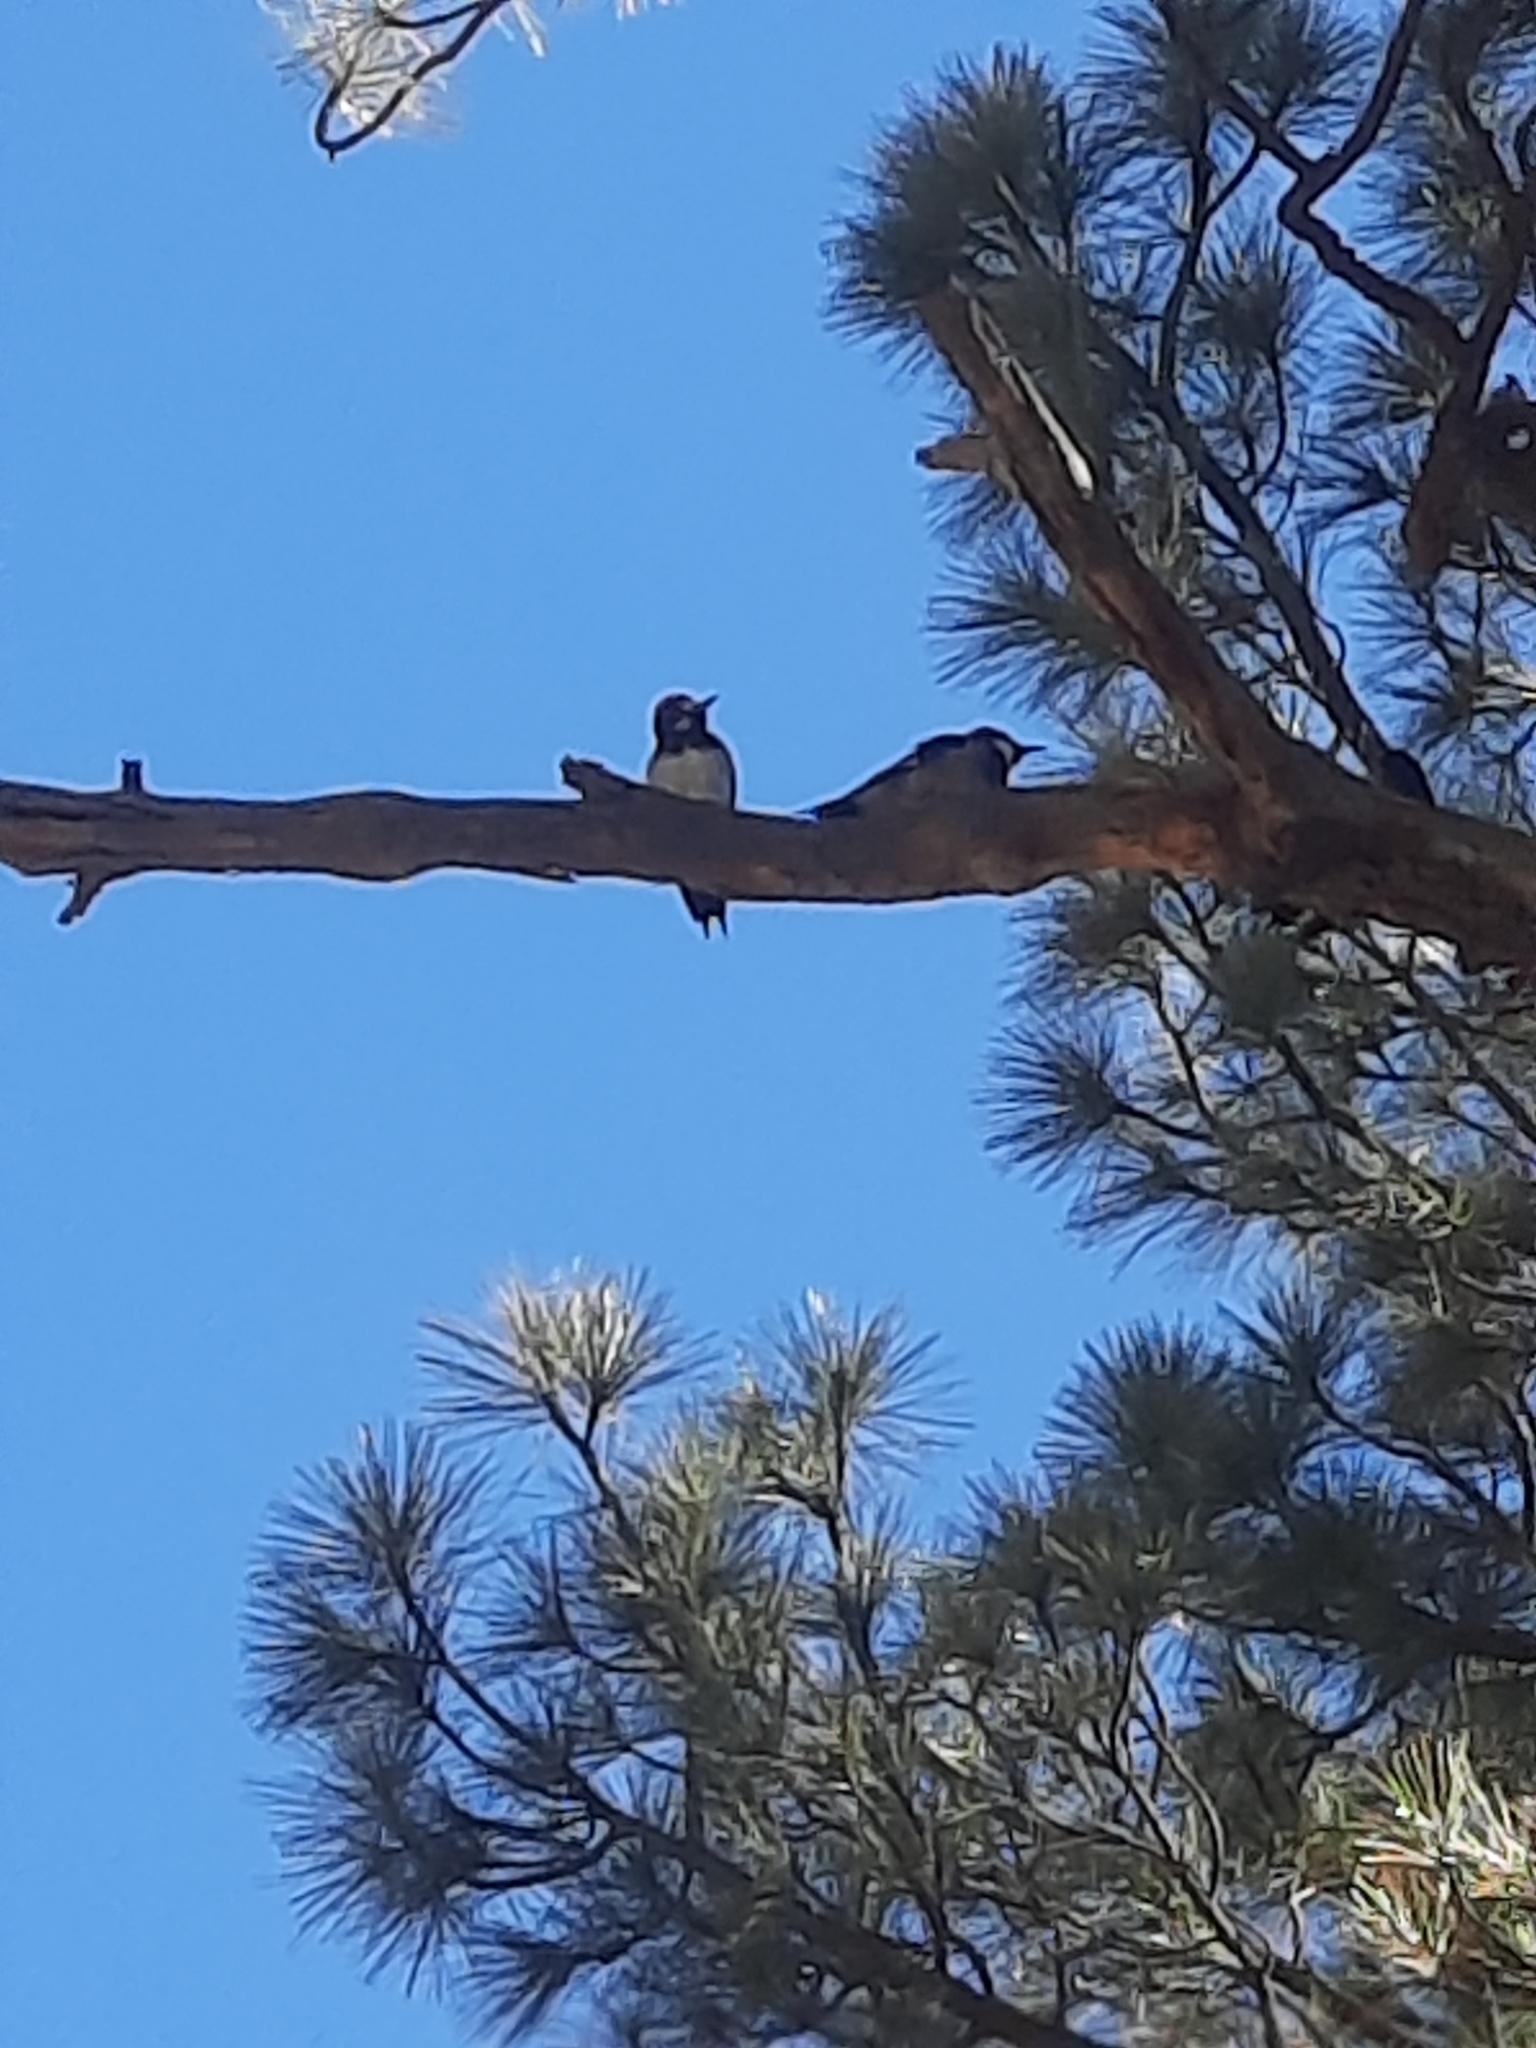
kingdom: Animalia
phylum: Chordata
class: Aves
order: Piciformes
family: Picidae
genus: Melanerpes
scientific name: Melanerpes formicivorus
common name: Acorn woodpecker
